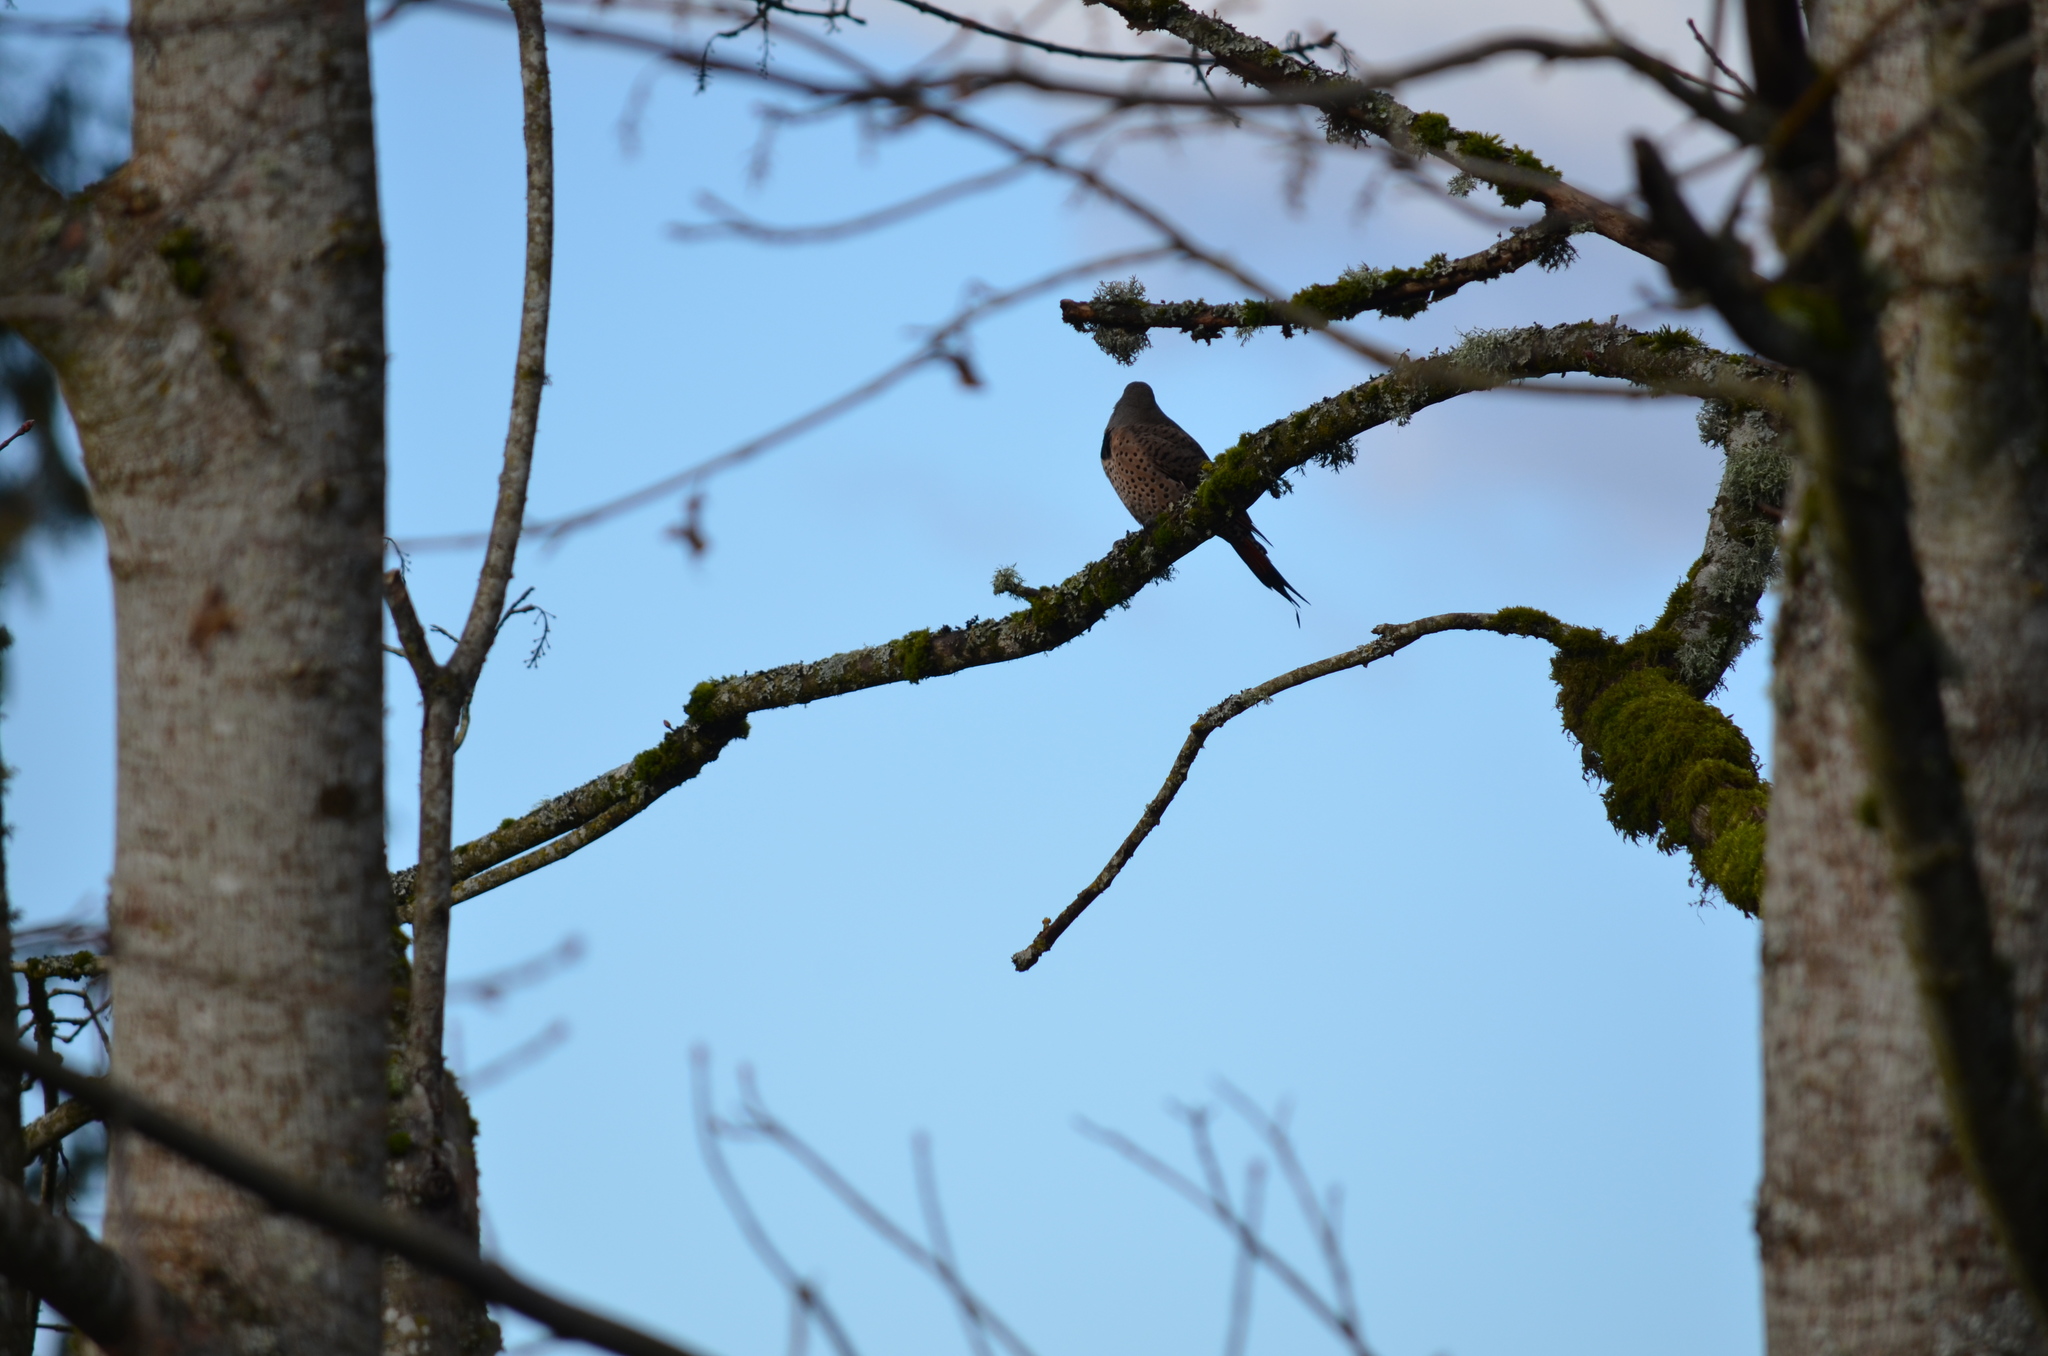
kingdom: Animalia
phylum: Chordata
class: Aves
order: Piciformes
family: Picidae
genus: Colaptes
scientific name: Colaptes auratus
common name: Northern flicker
